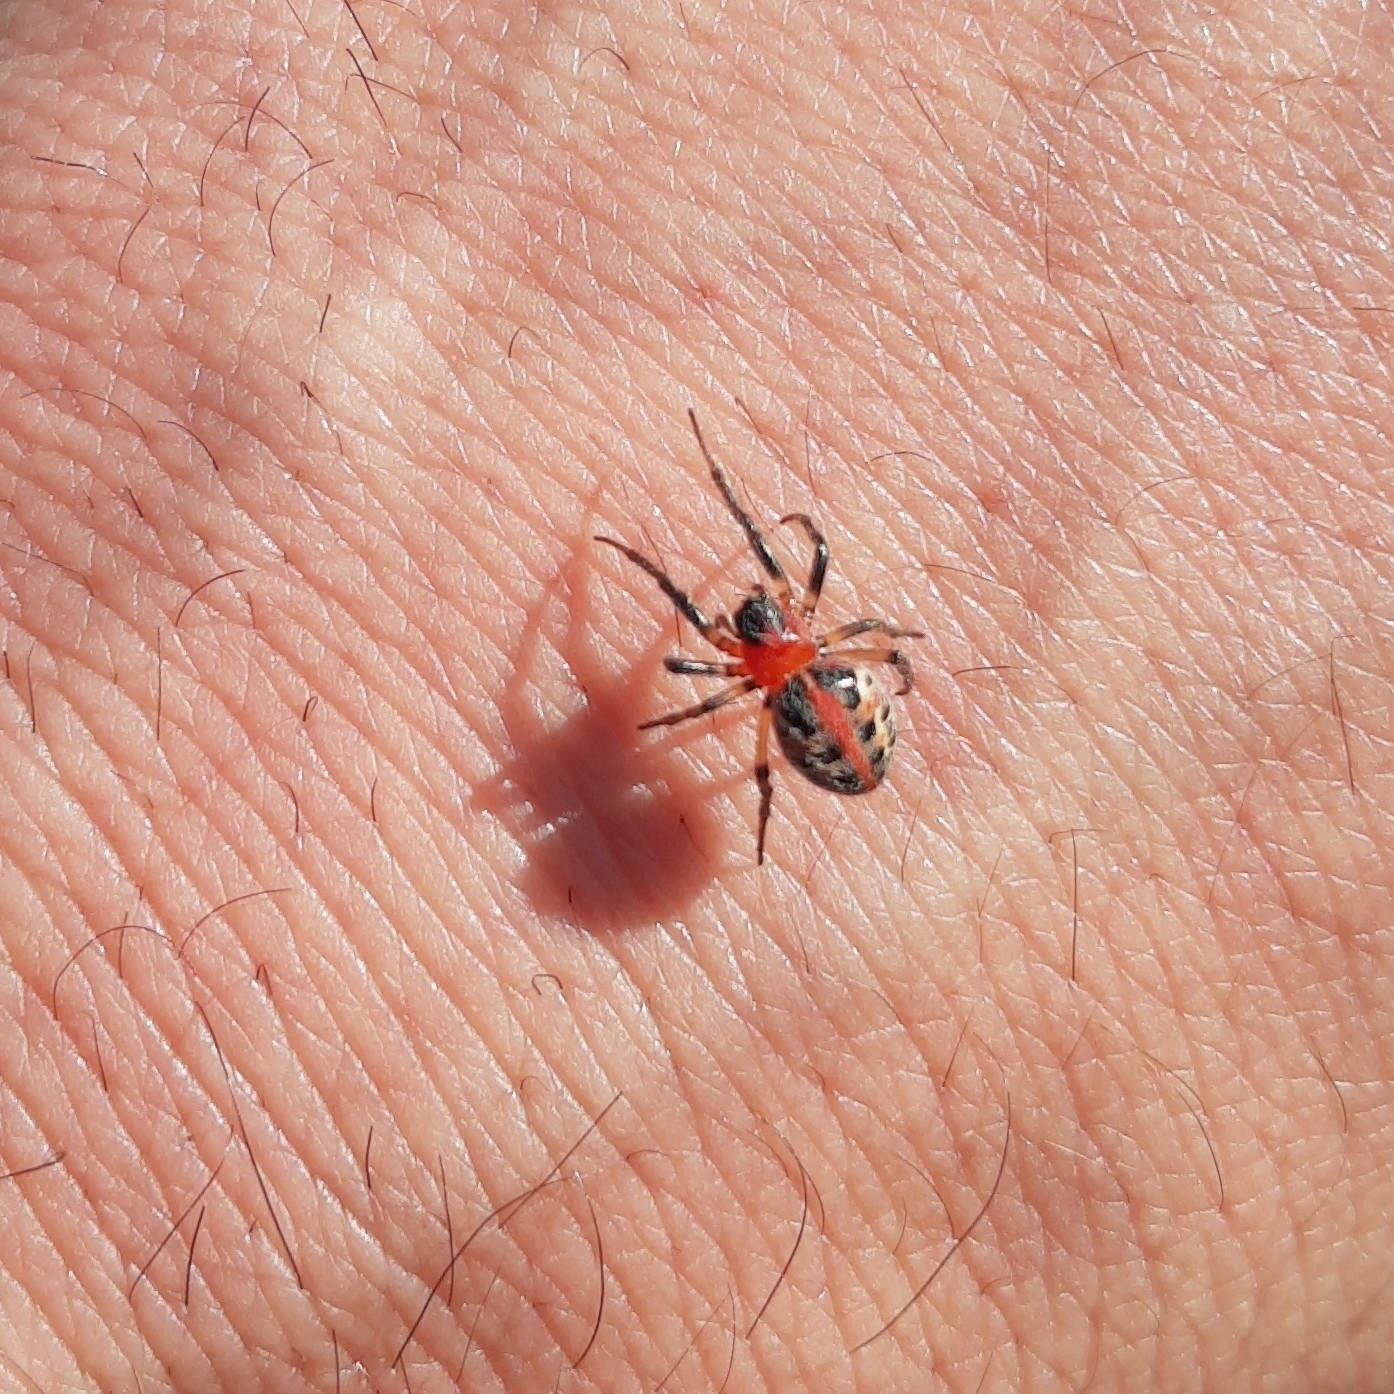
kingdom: Animalia
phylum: Arthropoda
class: Arachnida
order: Araneae
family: Araneidae
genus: Alpaida
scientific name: Alpaida versicolor
